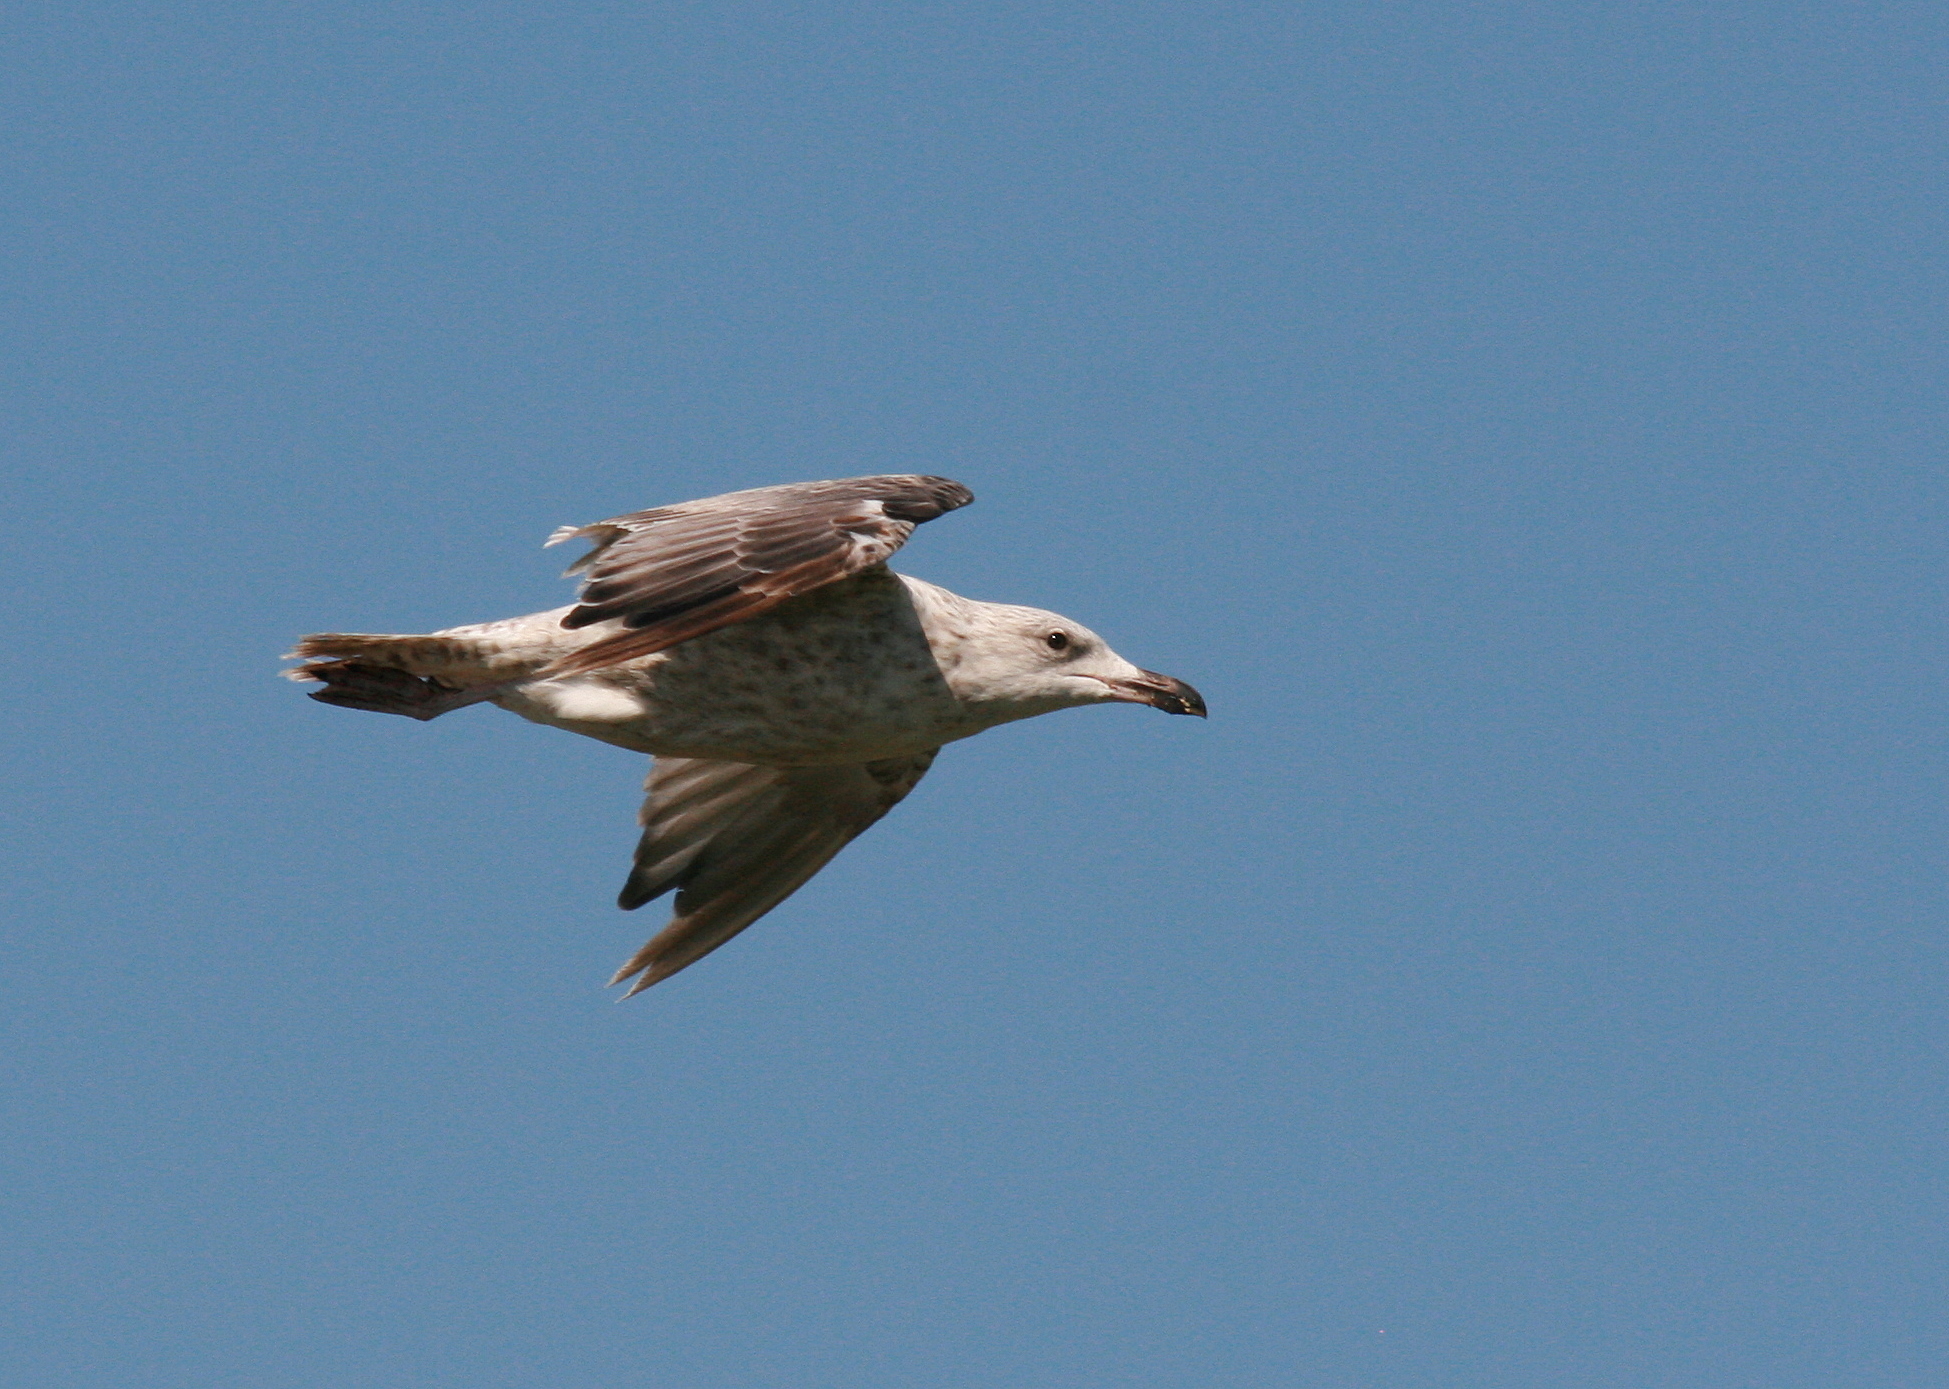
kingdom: Animalia
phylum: Chordata
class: Aves
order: Charadriiformes
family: Laridae
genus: Larus
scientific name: Larus argentatus
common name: Herring gull
